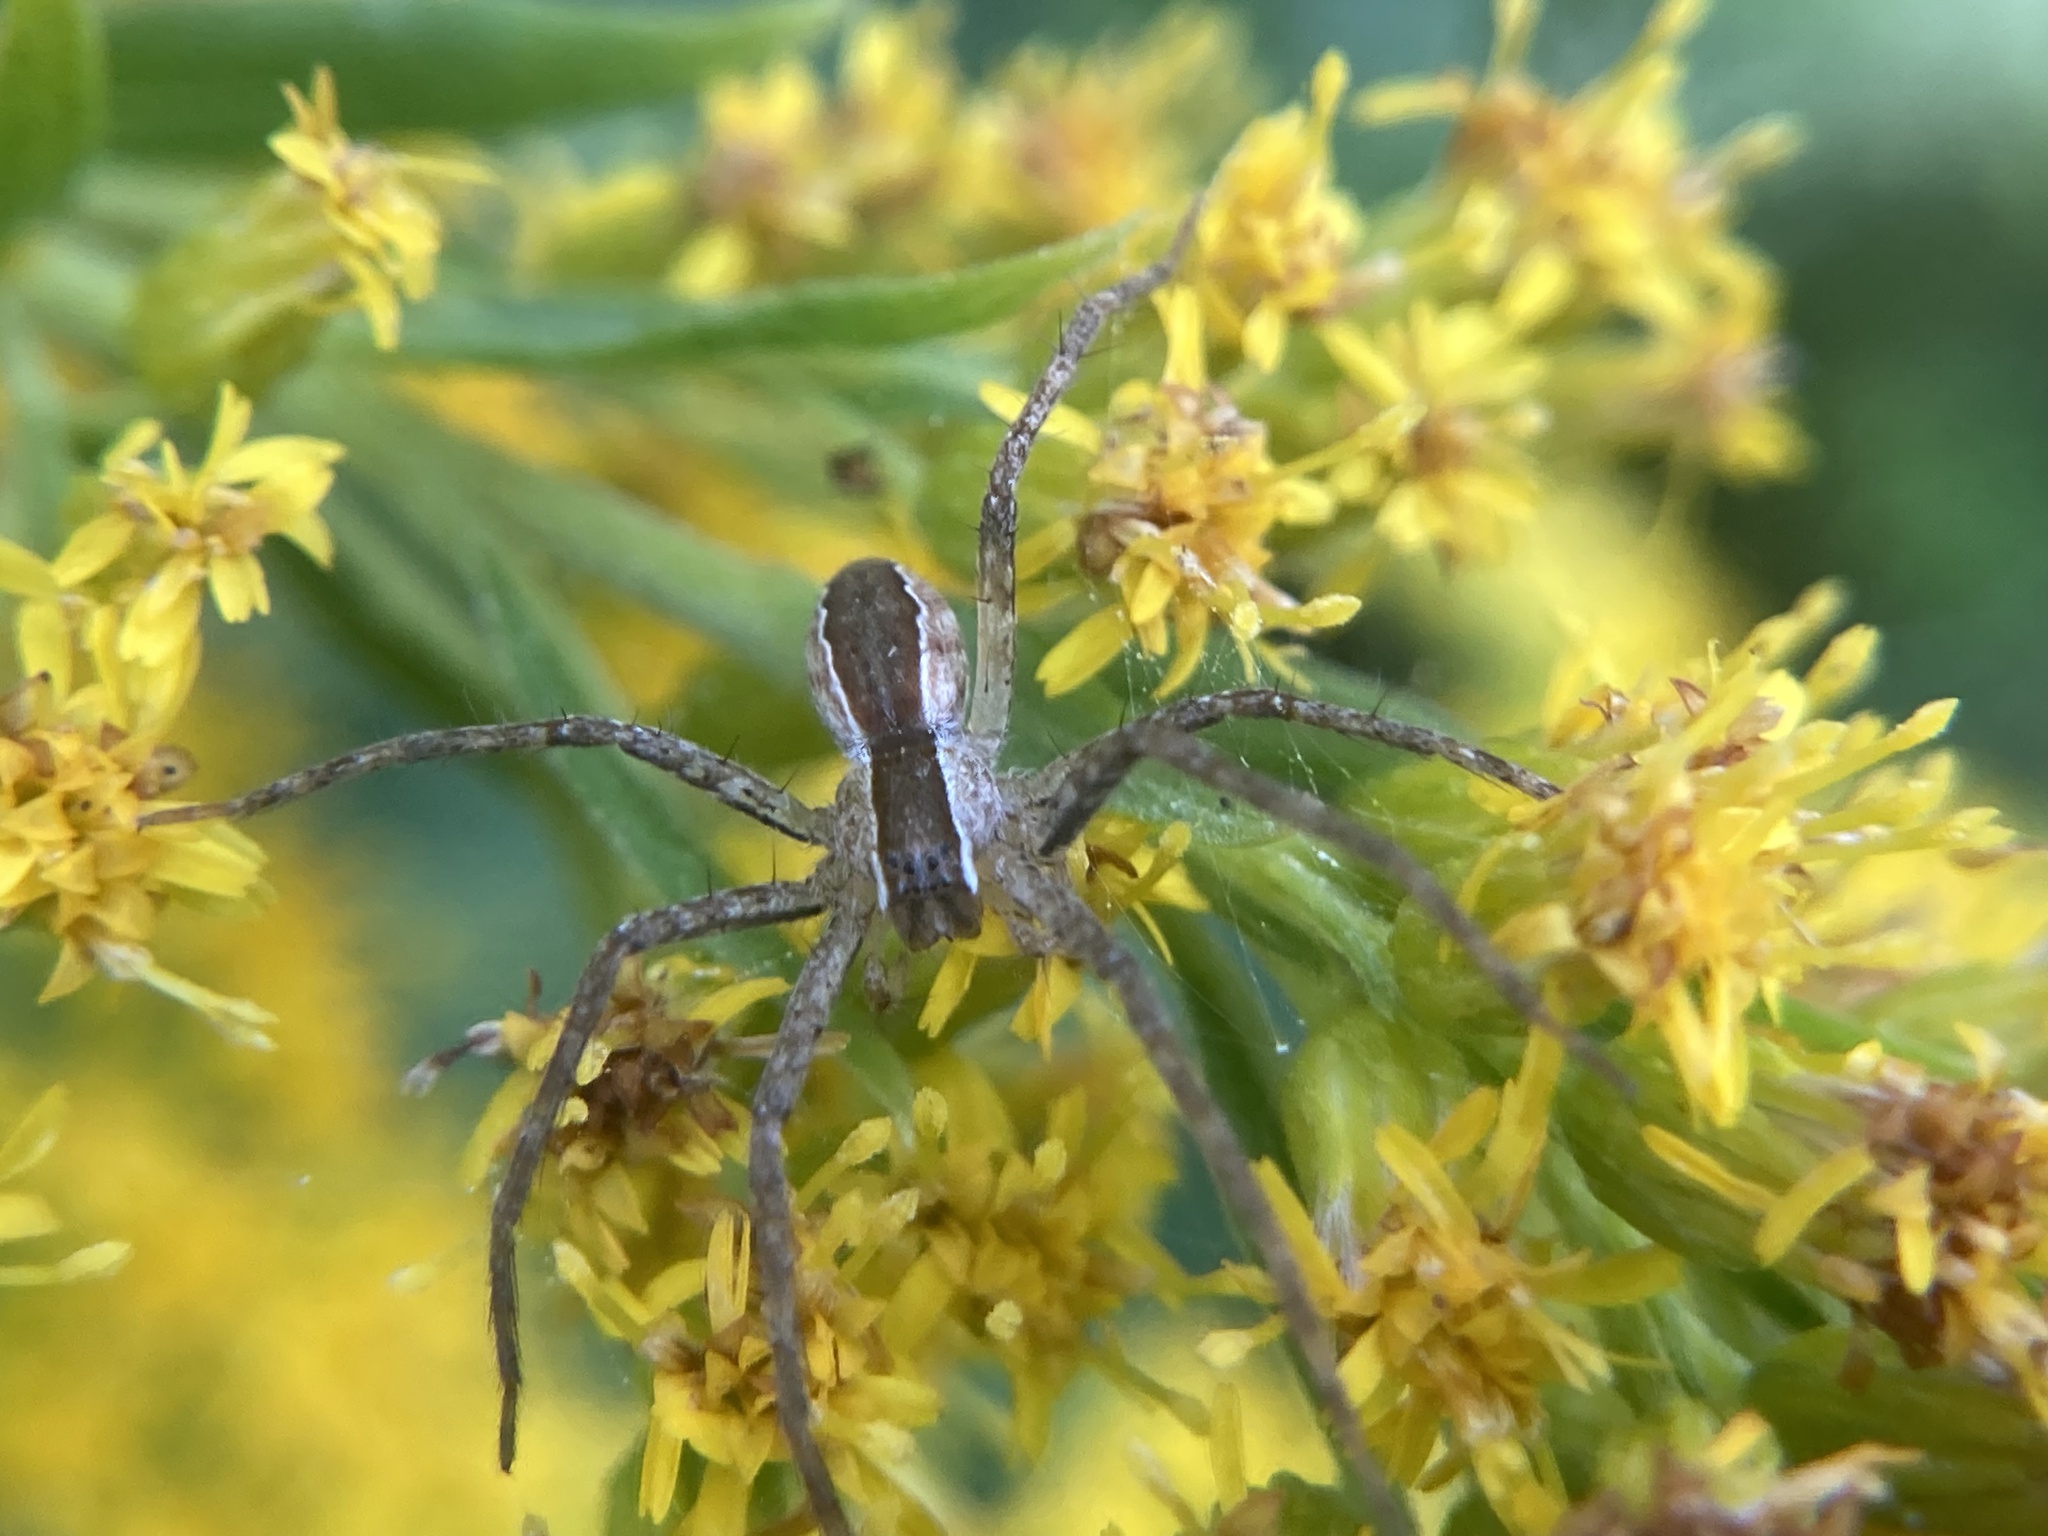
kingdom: Animalia
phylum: Arthropoda
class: Arachnida
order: Araneae
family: Pisauridae
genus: Pisaurina
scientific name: Pisaurina mira
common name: American nursery web spider
